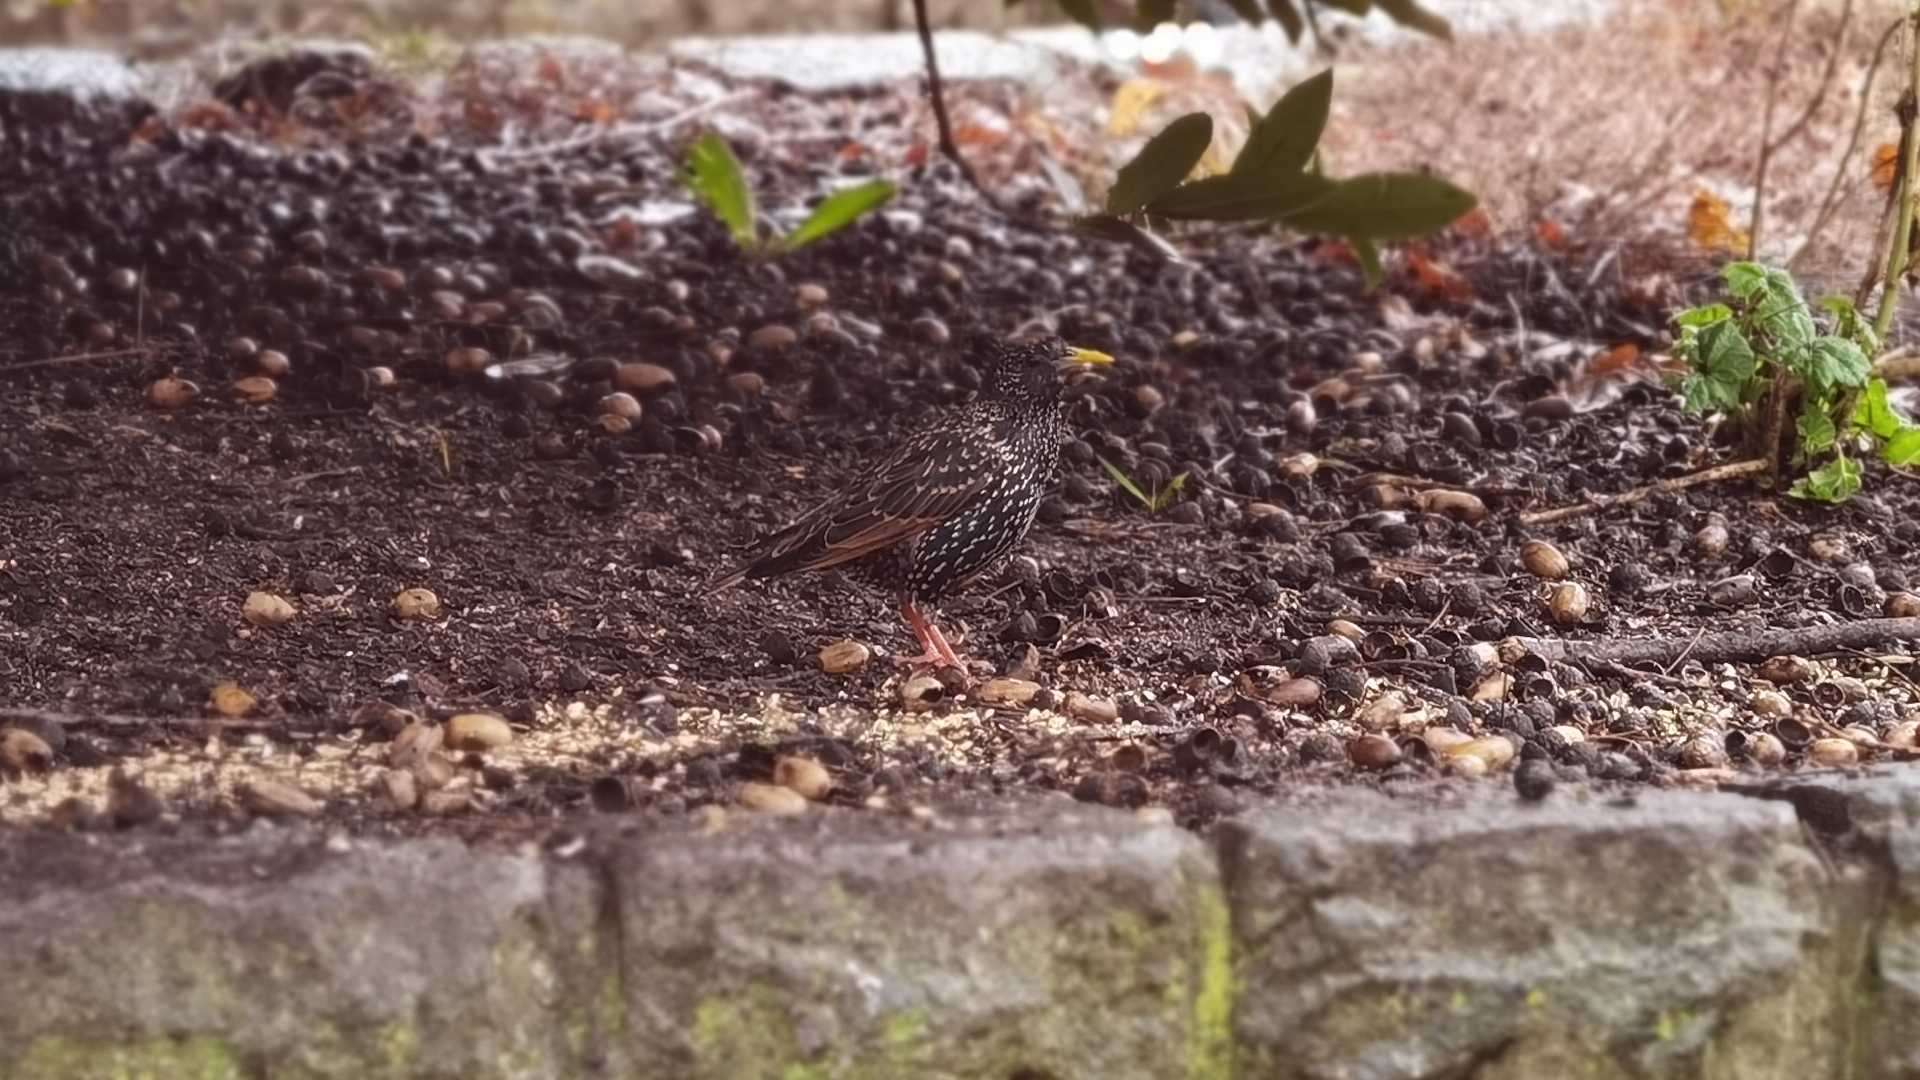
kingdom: Animalia
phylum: Chordata
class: Aves
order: Passeriformes
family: Sturnidae
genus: Sturnus
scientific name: Sturnus vulgaris
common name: Common starling
